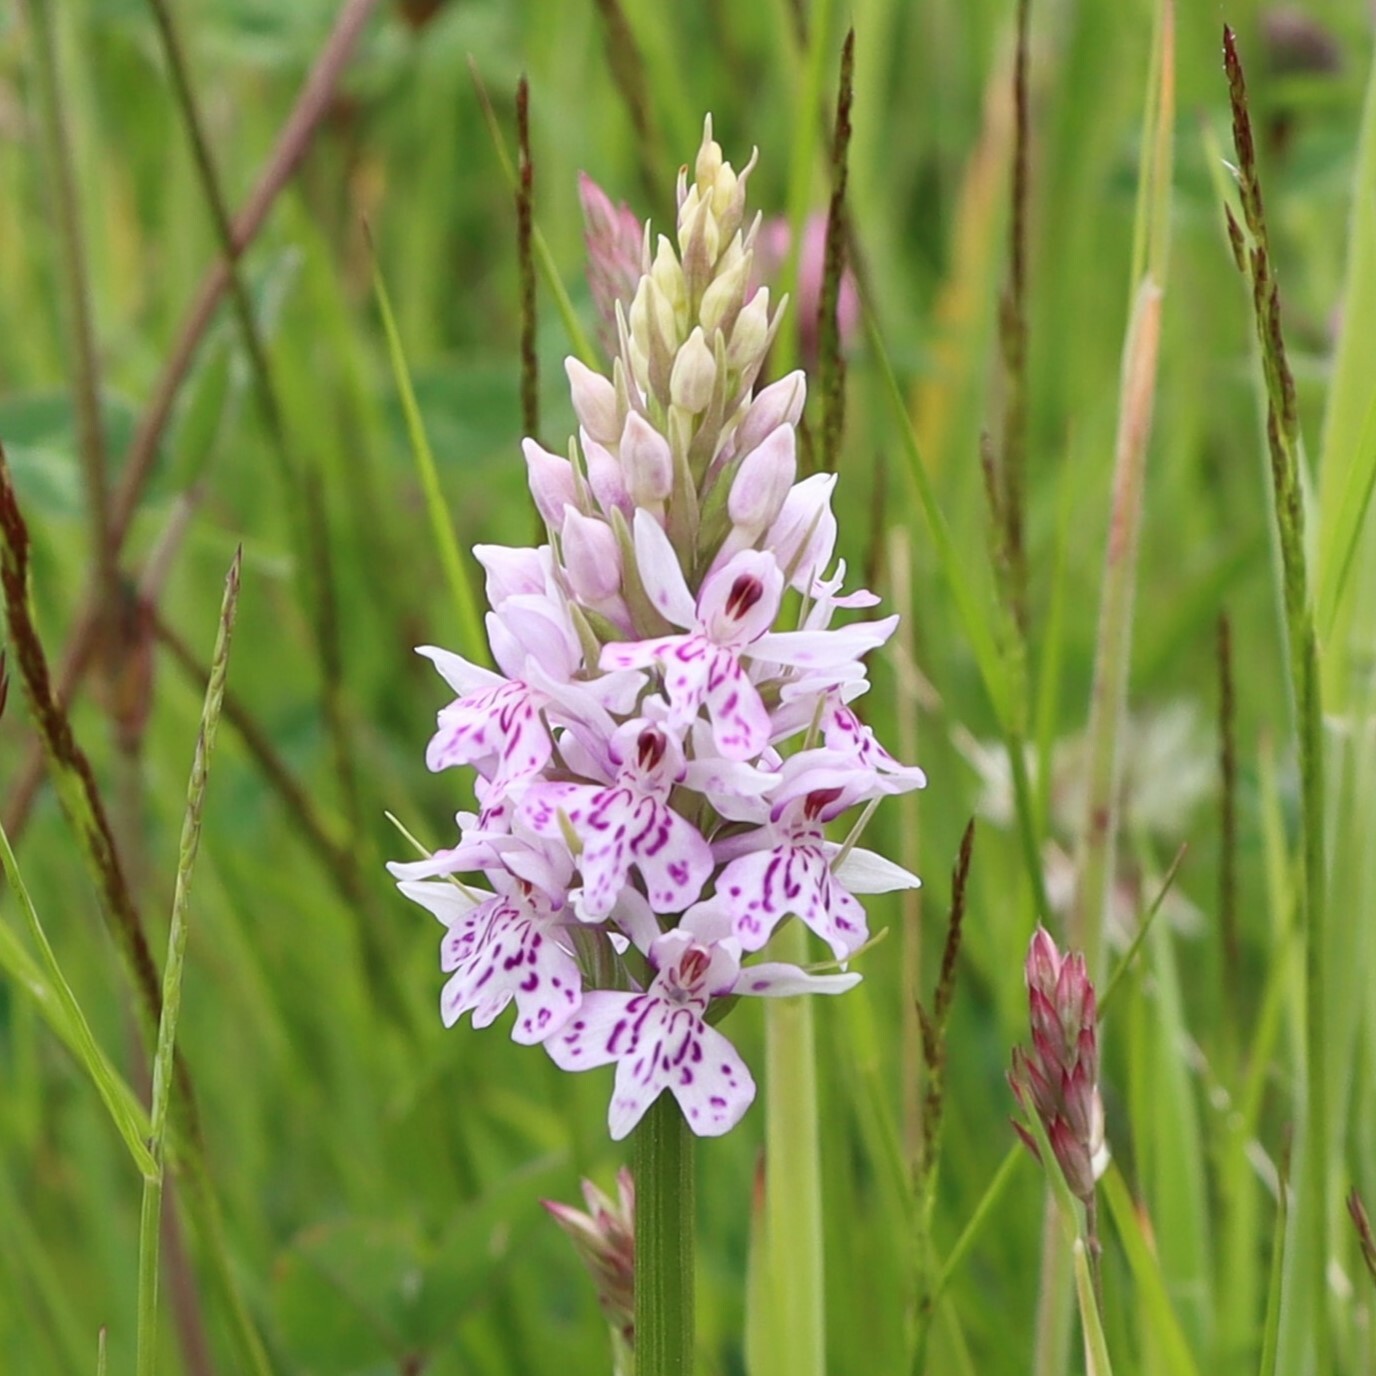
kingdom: Plantae
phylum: Tracheophyta
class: Liliopsida
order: Asparagales
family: Orchidaceae
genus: Dactylorhiza
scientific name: Dactylorhiza maculata
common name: Heath spotted-orchid
